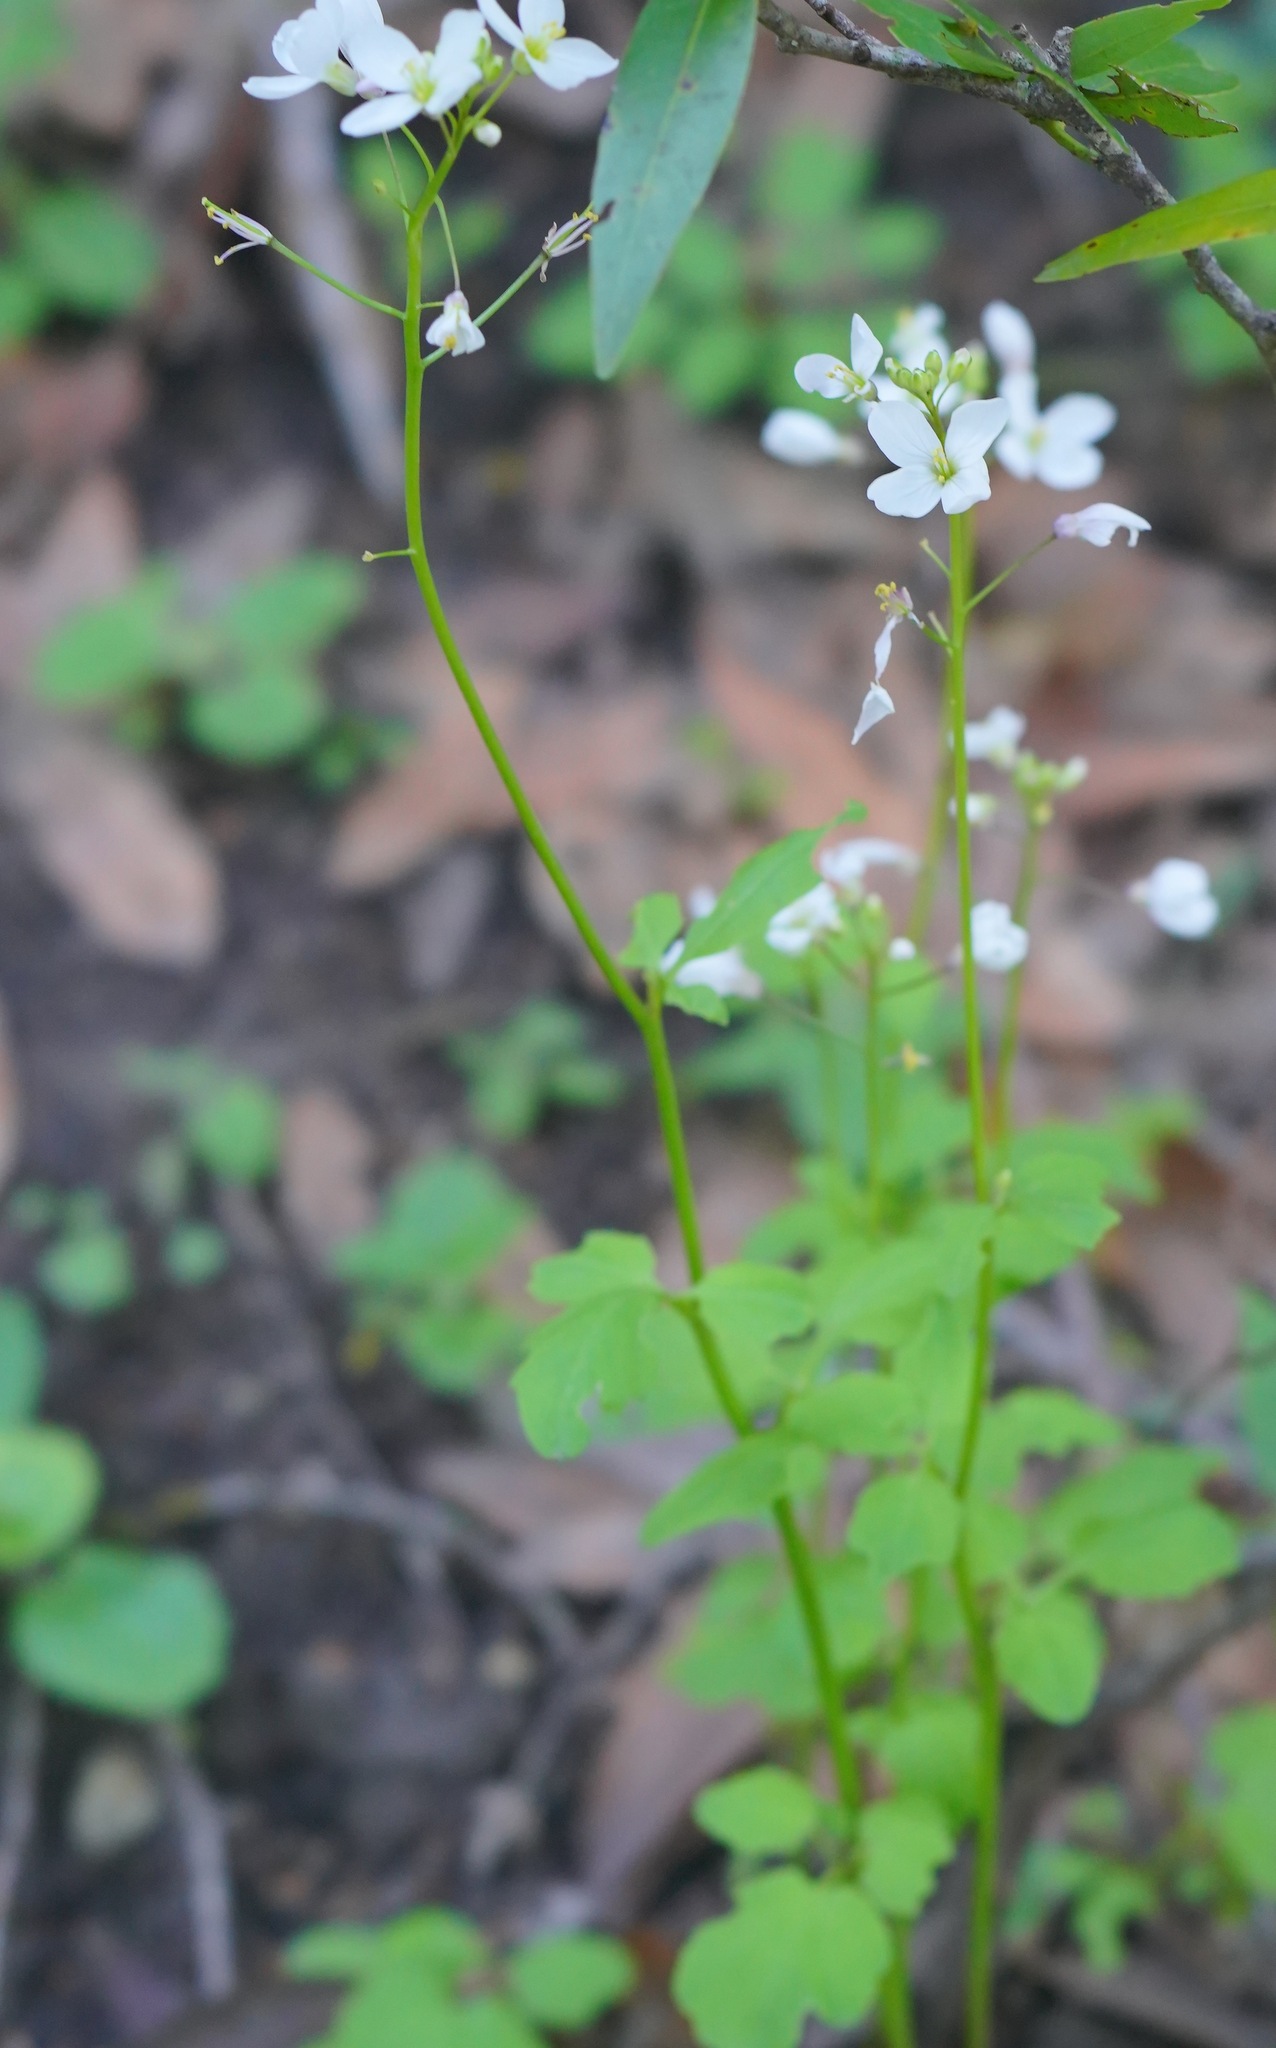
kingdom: Plantae
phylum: Tracheophyta
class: Magnoliopsida
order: Brassicales
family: Brassicaceae
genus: Cardamine
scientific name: Cardamine californica
